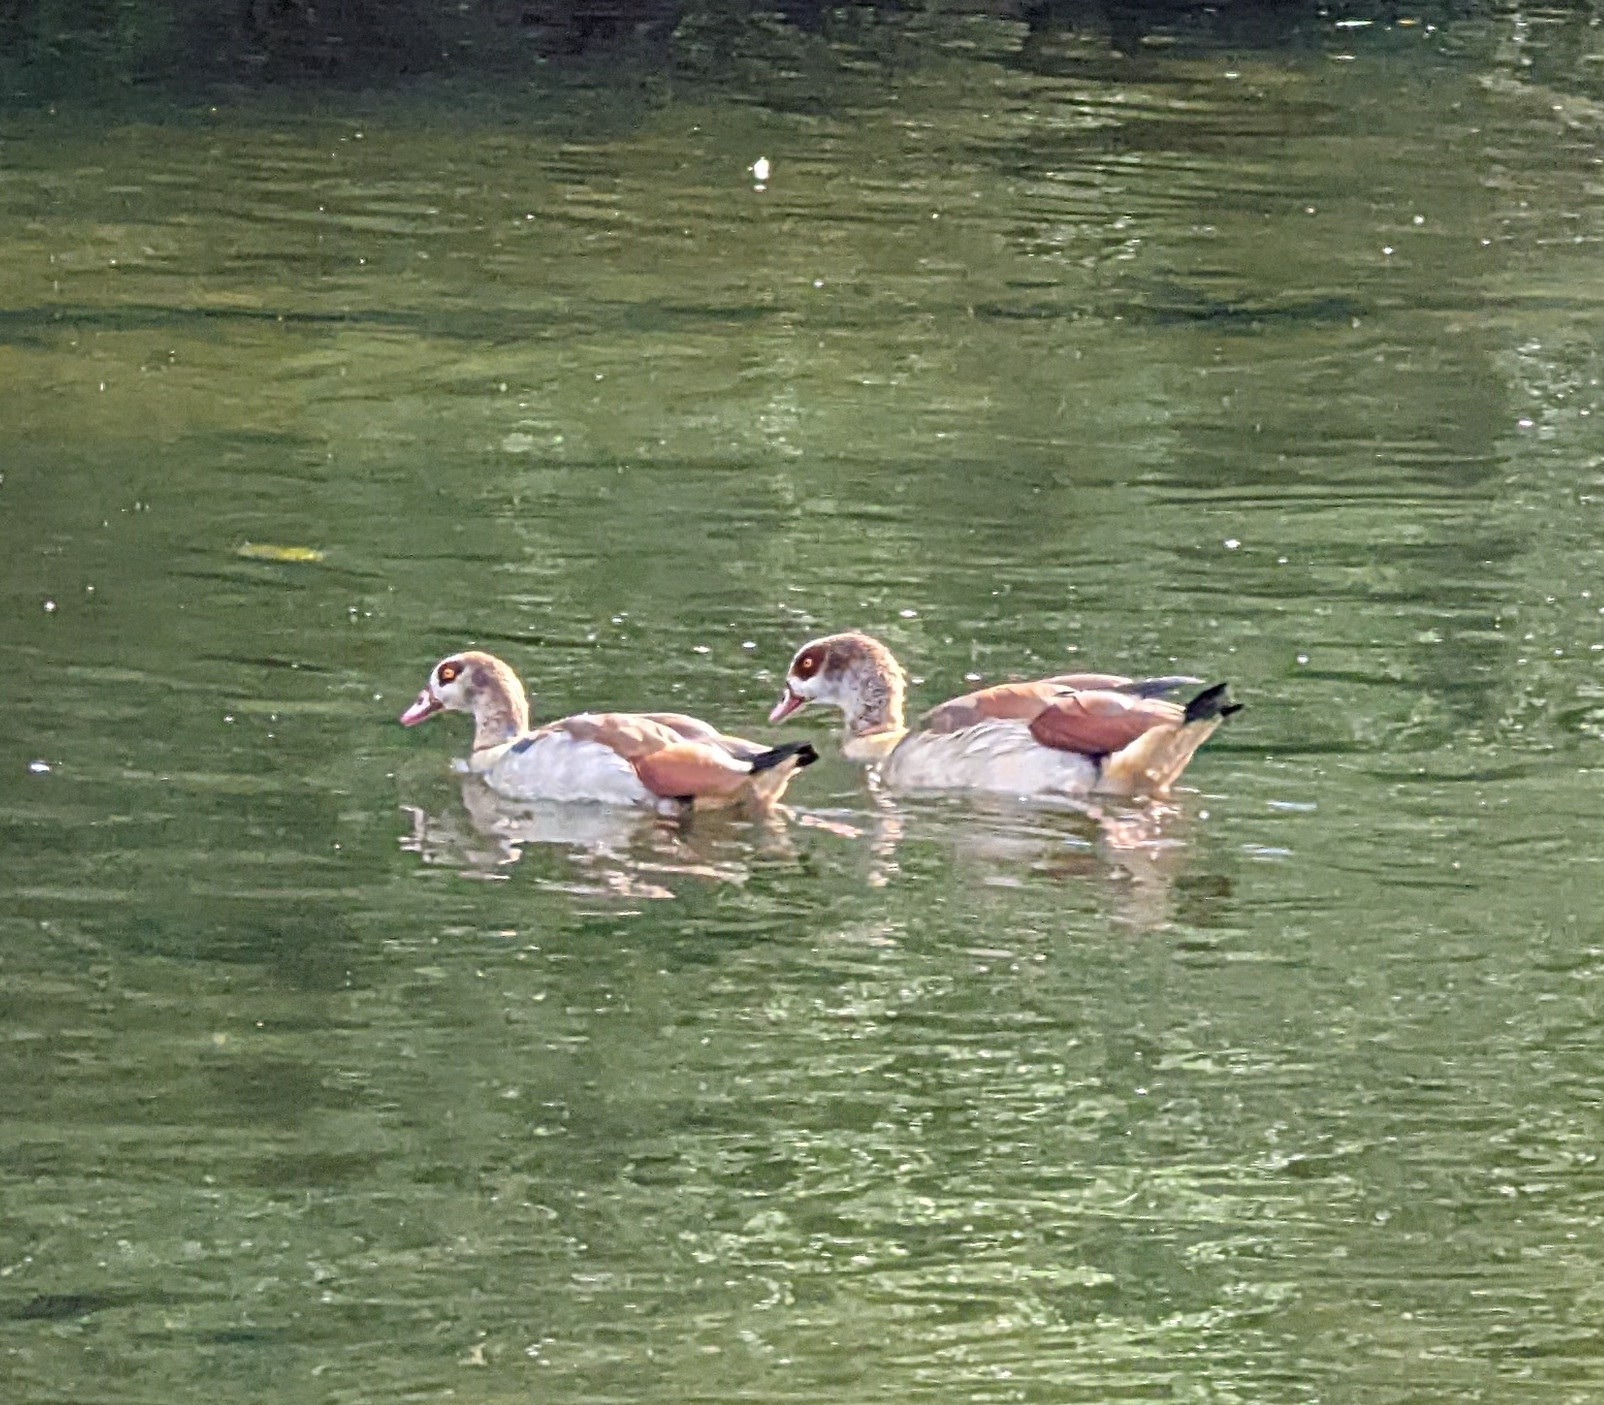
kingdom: Animalia
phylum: Chordata
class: Aves
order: Anseriformes
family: Anatidae
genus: Alopochen
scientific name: Alopochen aegyptiaca
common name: Egyptian goose
